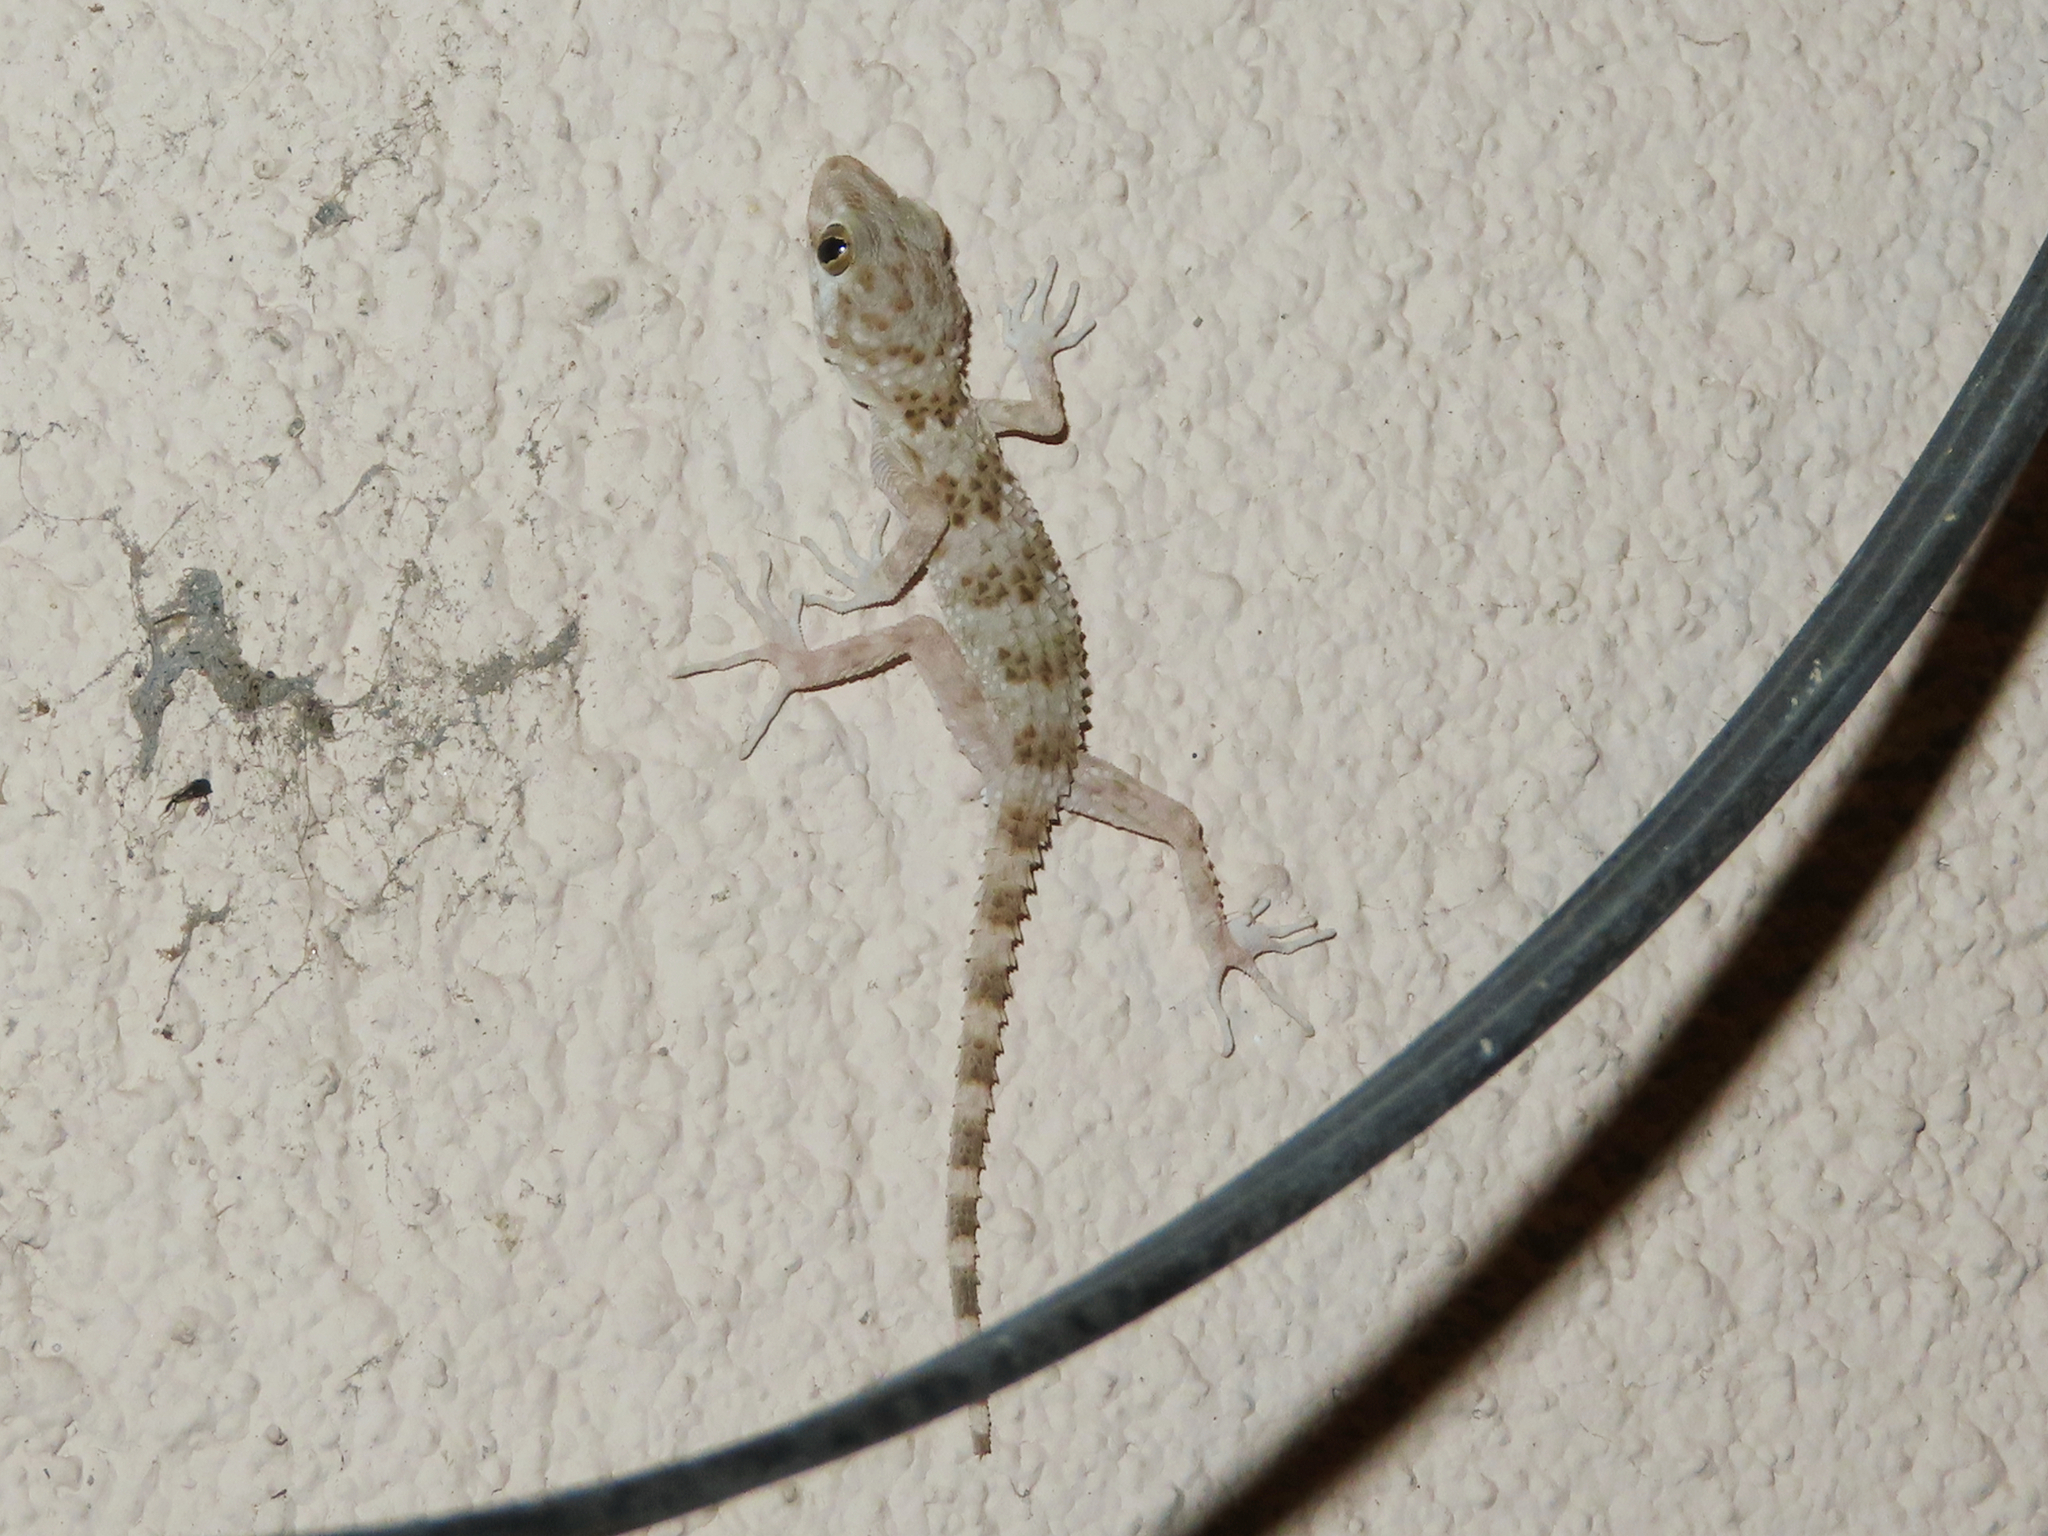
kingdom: Animalia
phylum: Chordata
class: Squamata
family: Gekkonidae
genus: Tenuidactylus
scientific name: Tenuidactylus caspius
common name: Caspian bent-toed gecko
